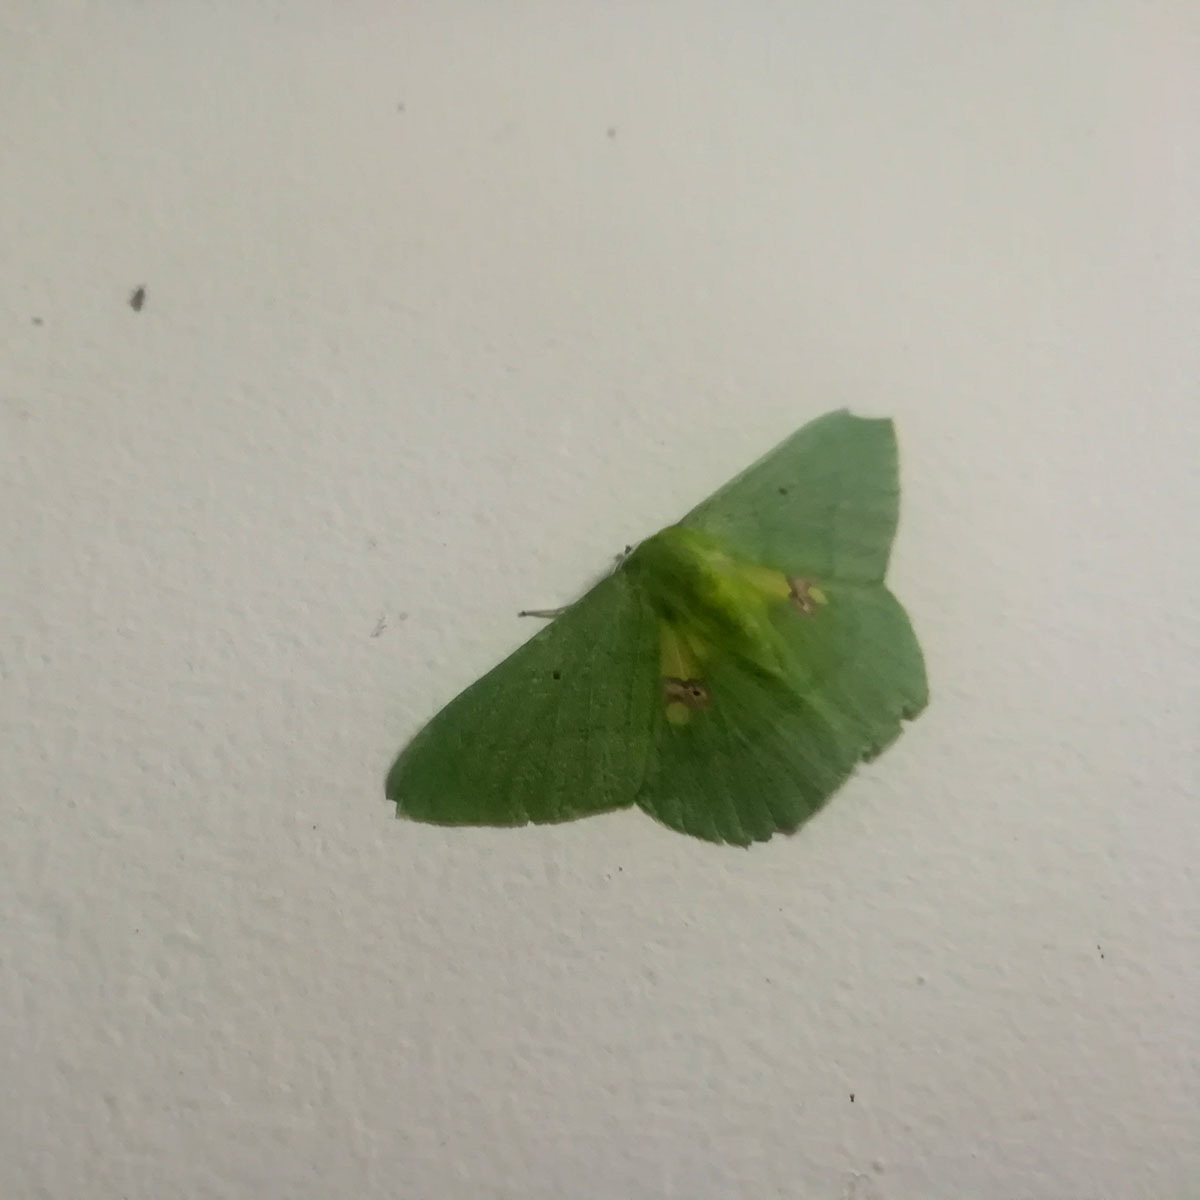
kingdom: Animalia
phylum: Arthropoda
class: Insecta
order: Lepidoptera
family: Geometridae
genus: Aporandria
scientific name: Aporandria specularia
